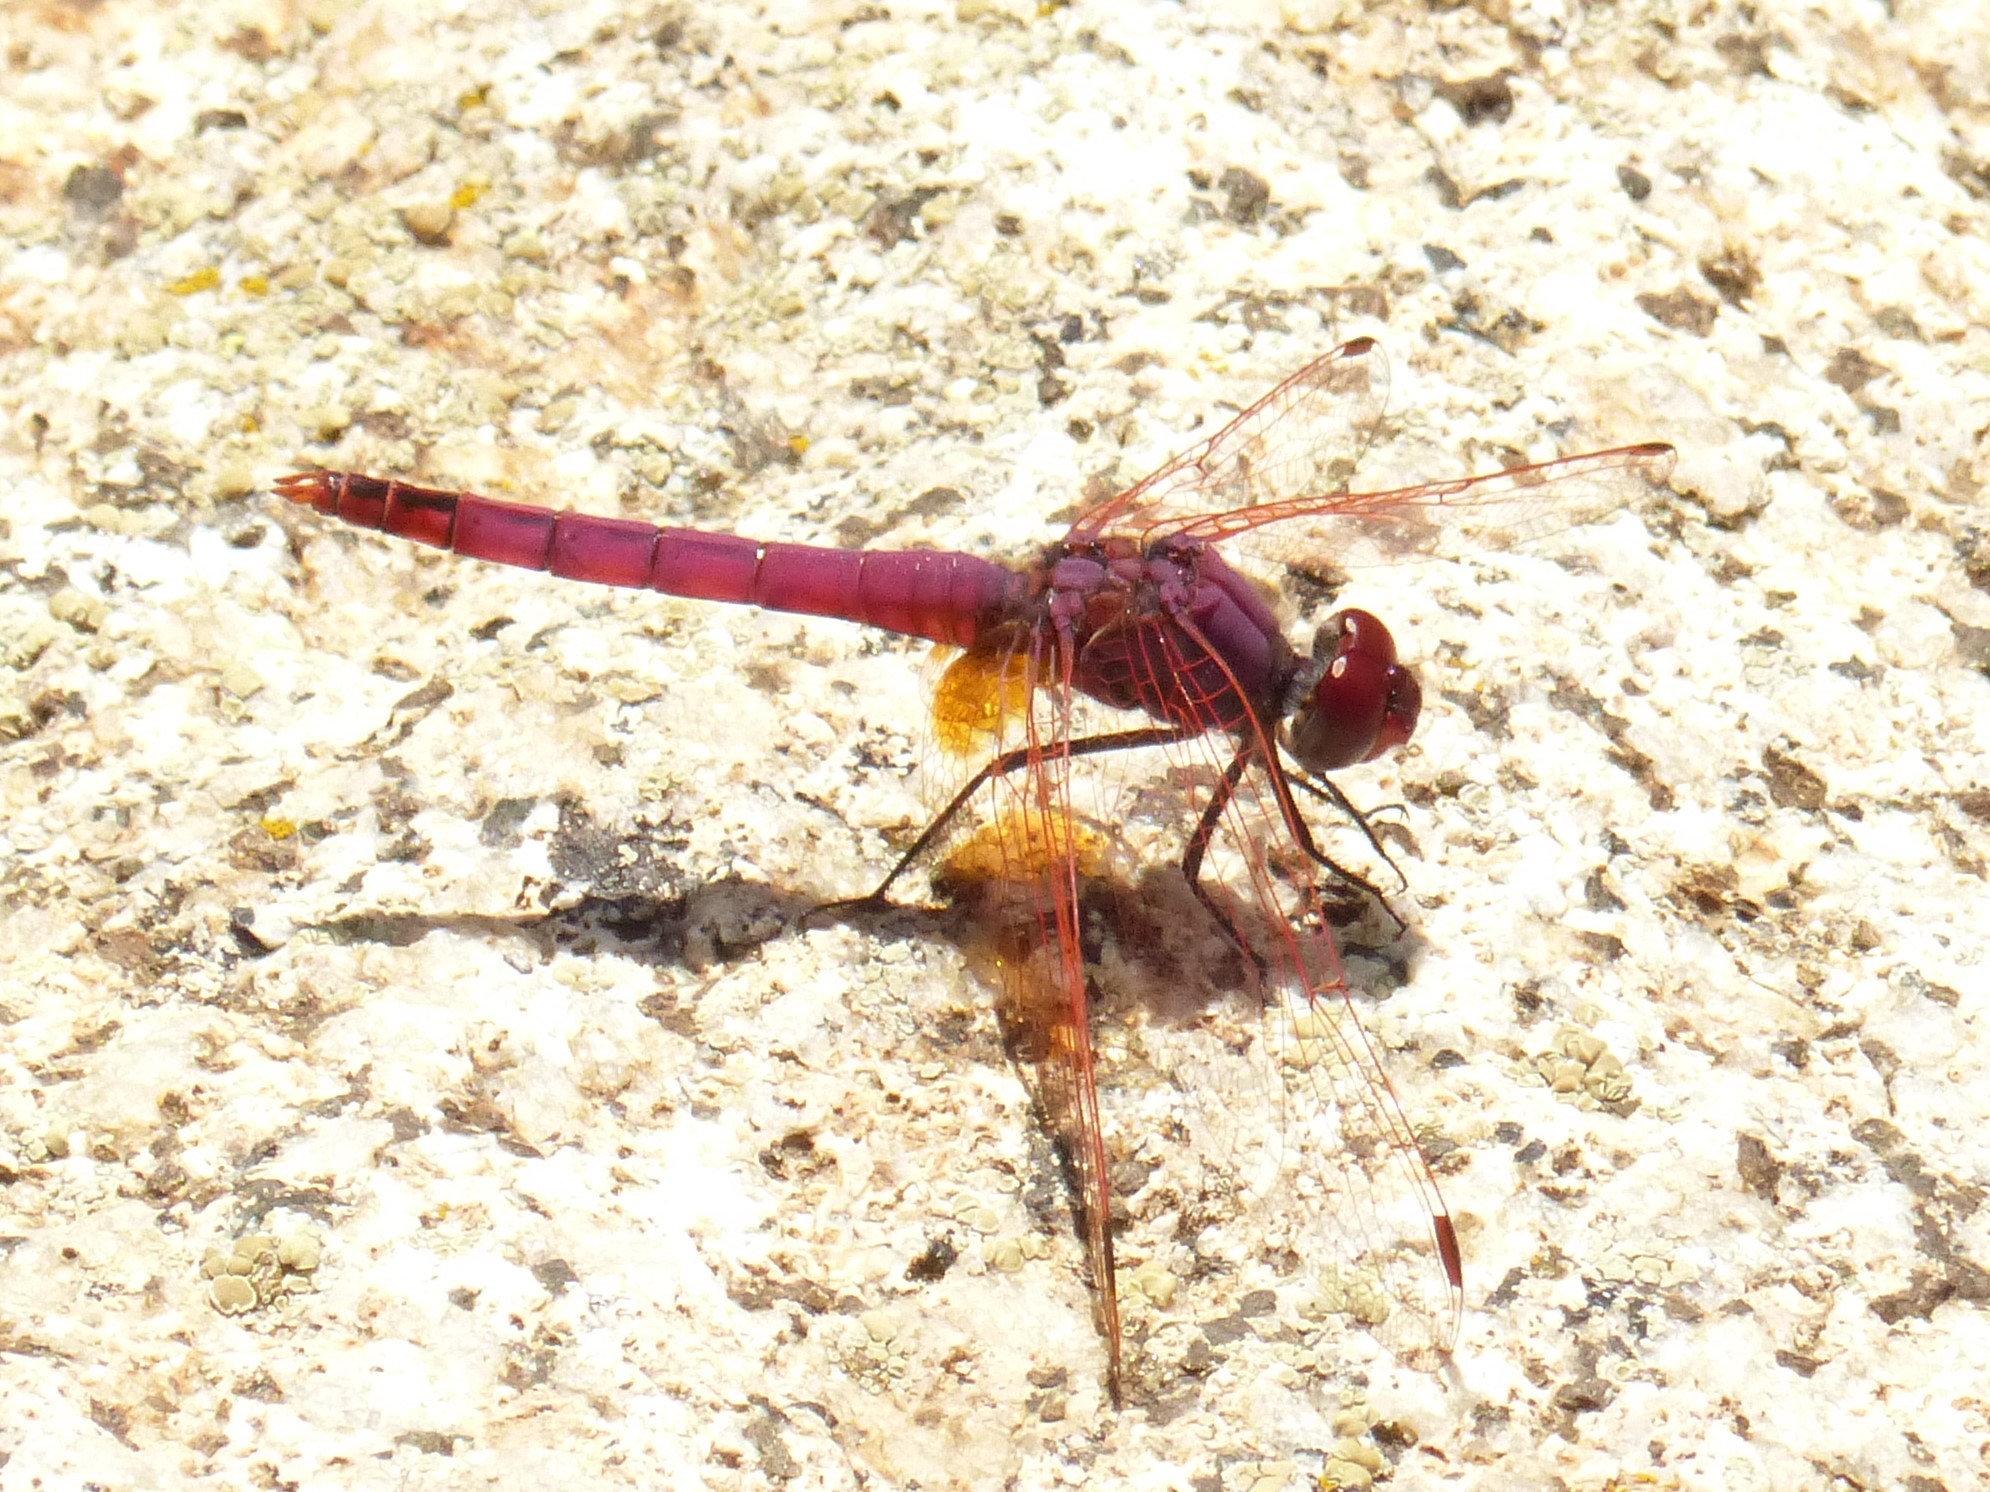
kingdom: Animalia
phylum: Arthropoda
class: Insecta
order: Odonata
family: Libellulidae
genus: Trithemis
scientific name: Trithemis annulata
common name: Violet dropwing
